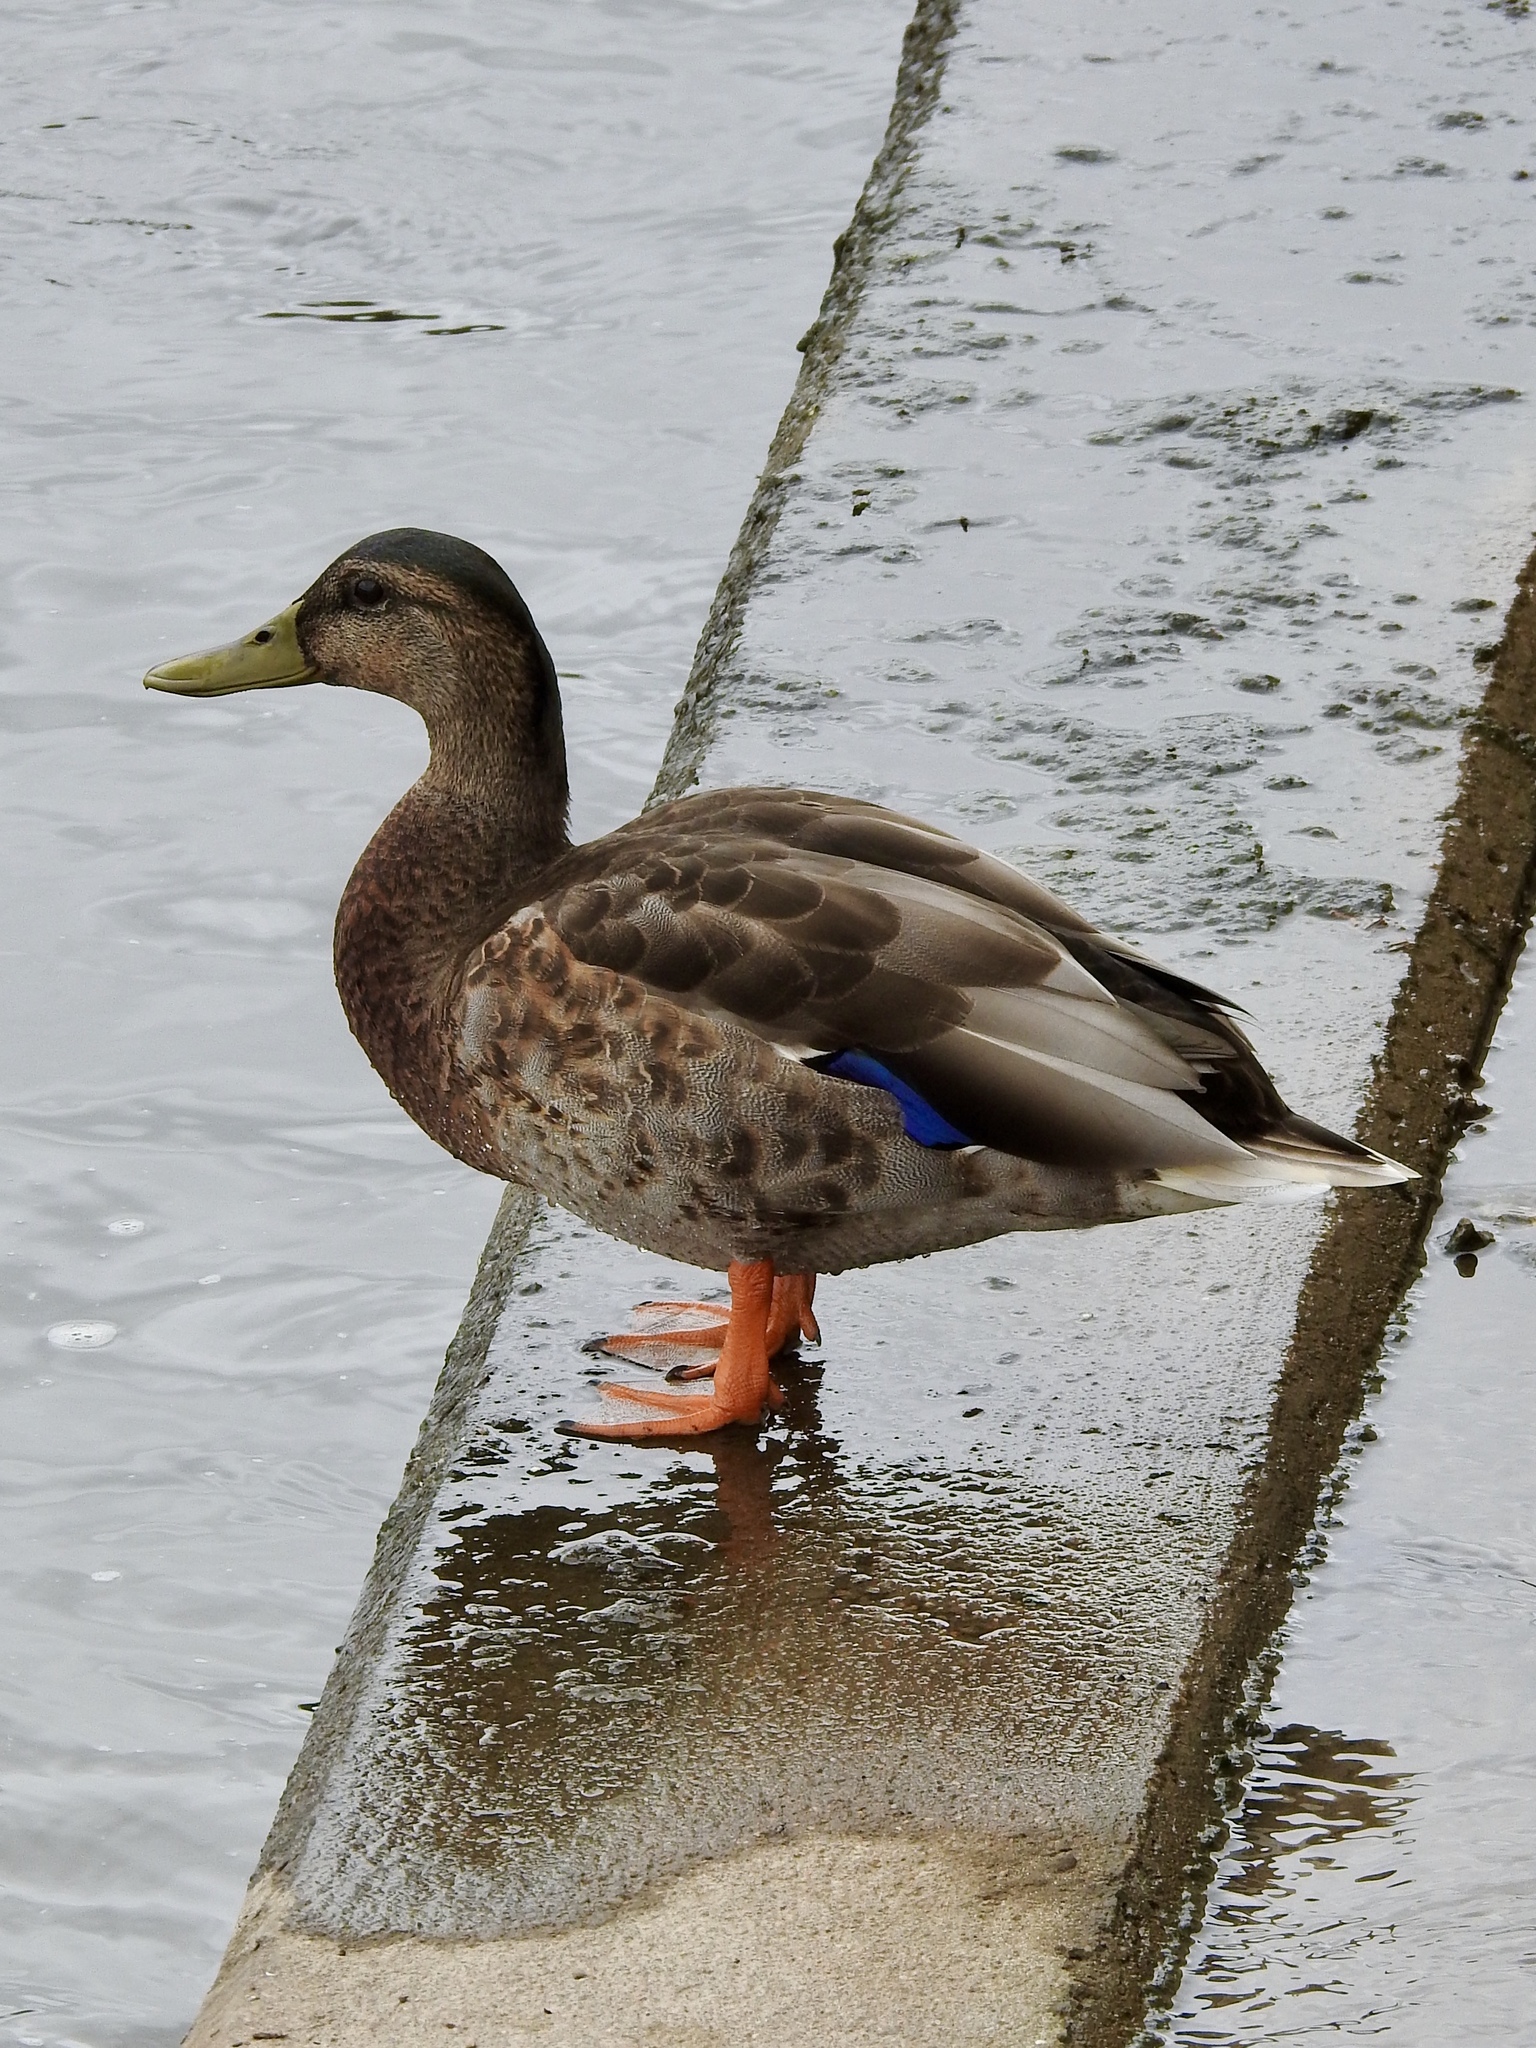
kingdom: Animalia
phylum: Chordata
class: Aves
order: Anseriformes
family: Anatidae
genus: Anas
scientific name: Anas platyrhynchos
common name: Mallard
